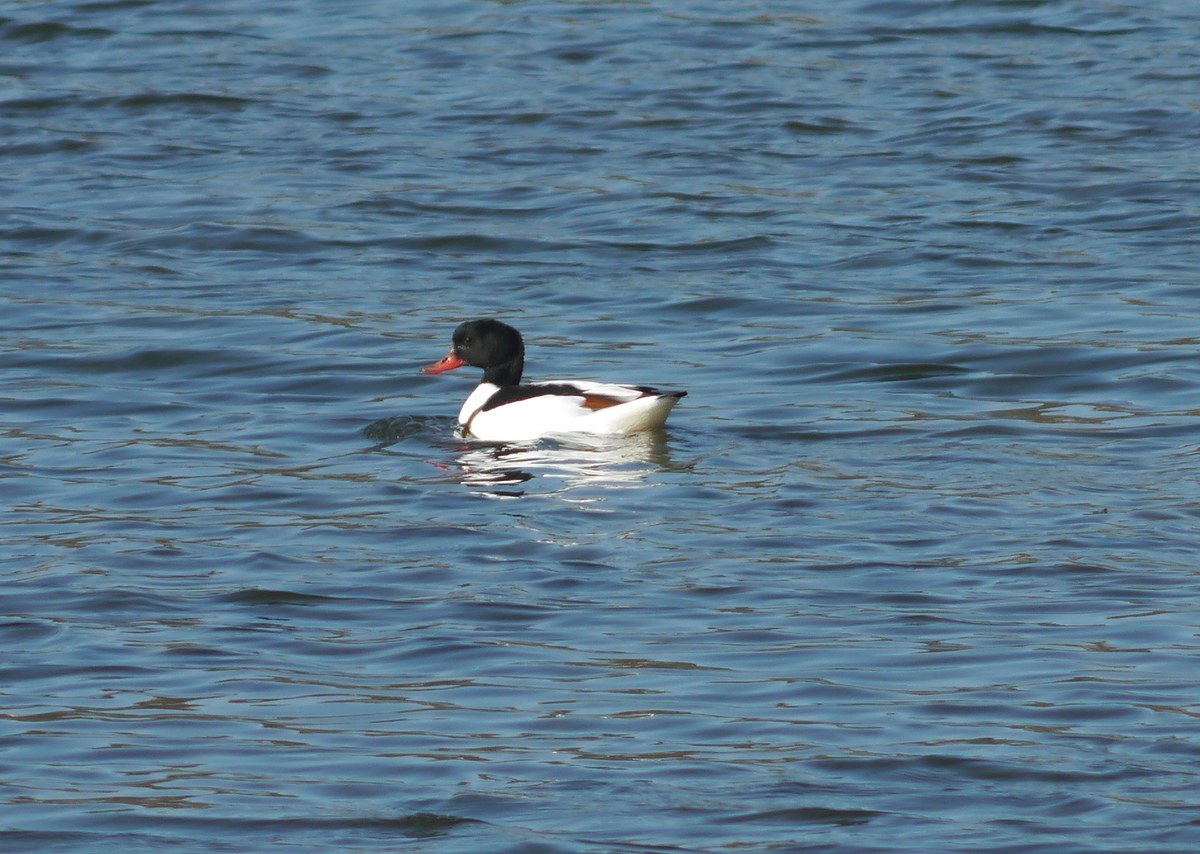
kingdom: Animalia
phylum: Chordata
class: Aves
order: Anseriformes
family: Anatidae
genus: Tadorna
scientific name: Tadorna tadorna
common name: Common shelduck
